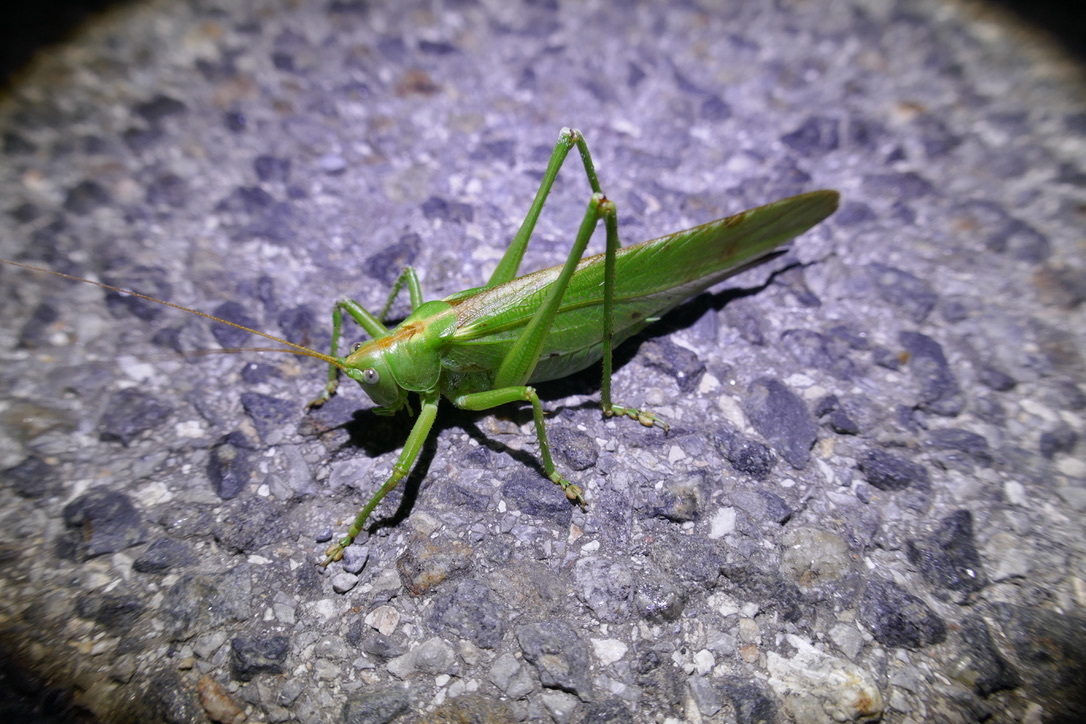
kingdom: Animalia
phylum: Arthropoda
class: Insecta
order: Orthoptera
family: Tettigoniidae
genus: Tettigonia
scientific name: Tettigonia viridissima
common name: Great green bush-cricket
